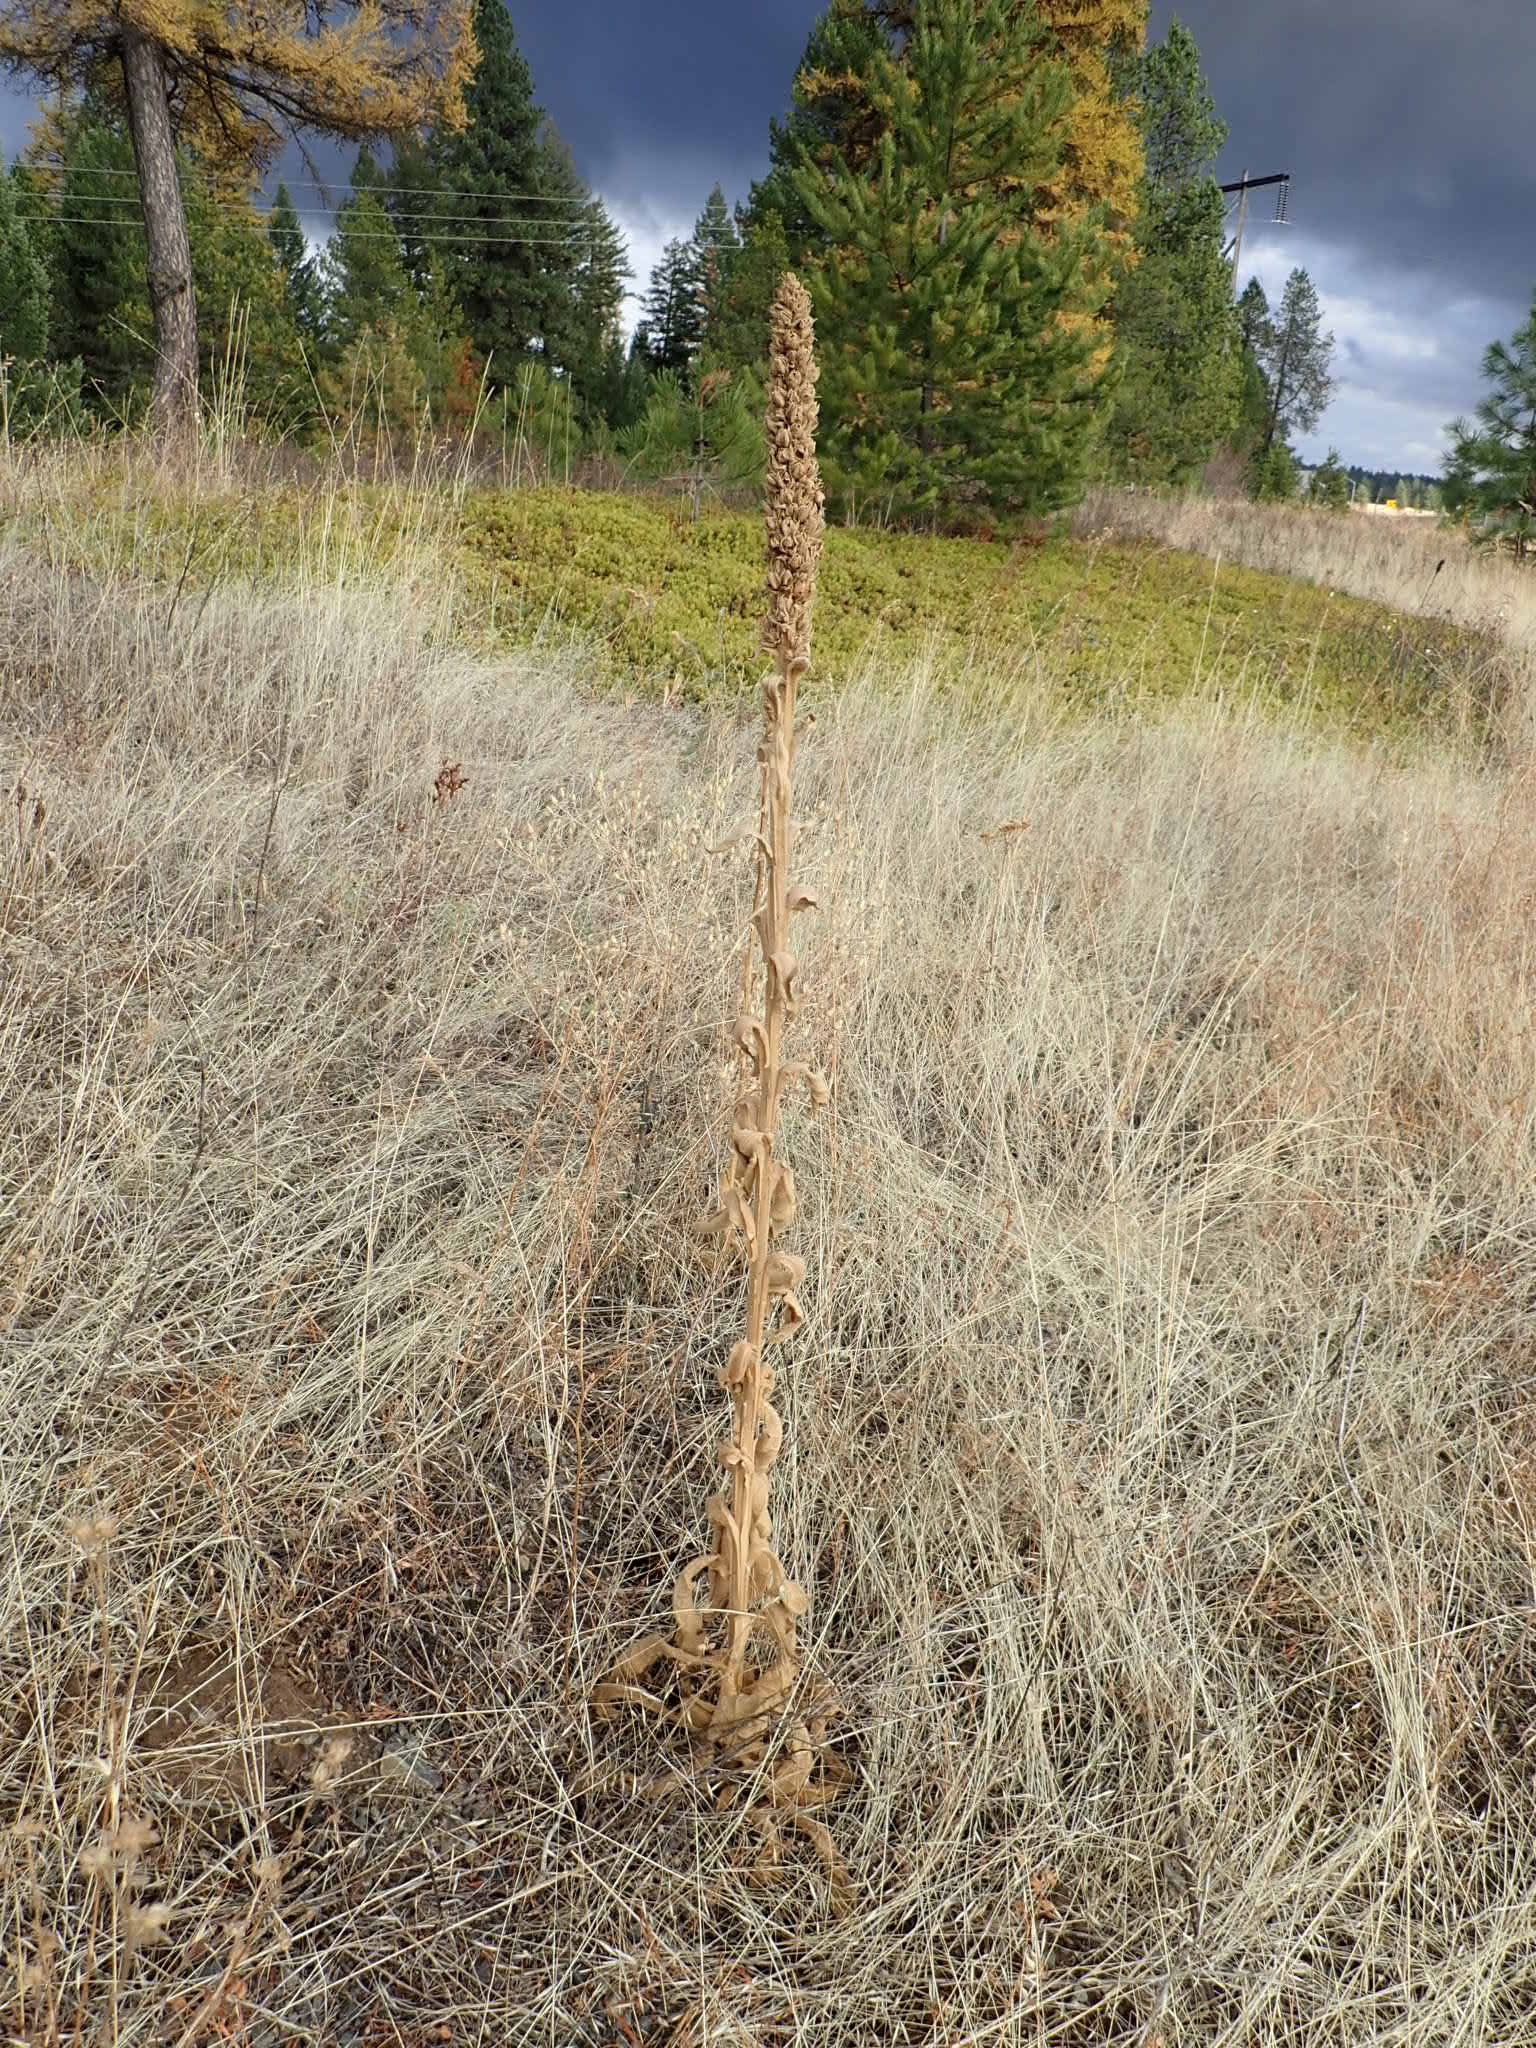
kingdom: Plantae
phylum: Tracheophyta
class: Magnoliopsida
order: Lamiales
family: Scrophulariaceae
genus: Verbascum
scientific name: Verbascum thapsus
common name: Common mullein
